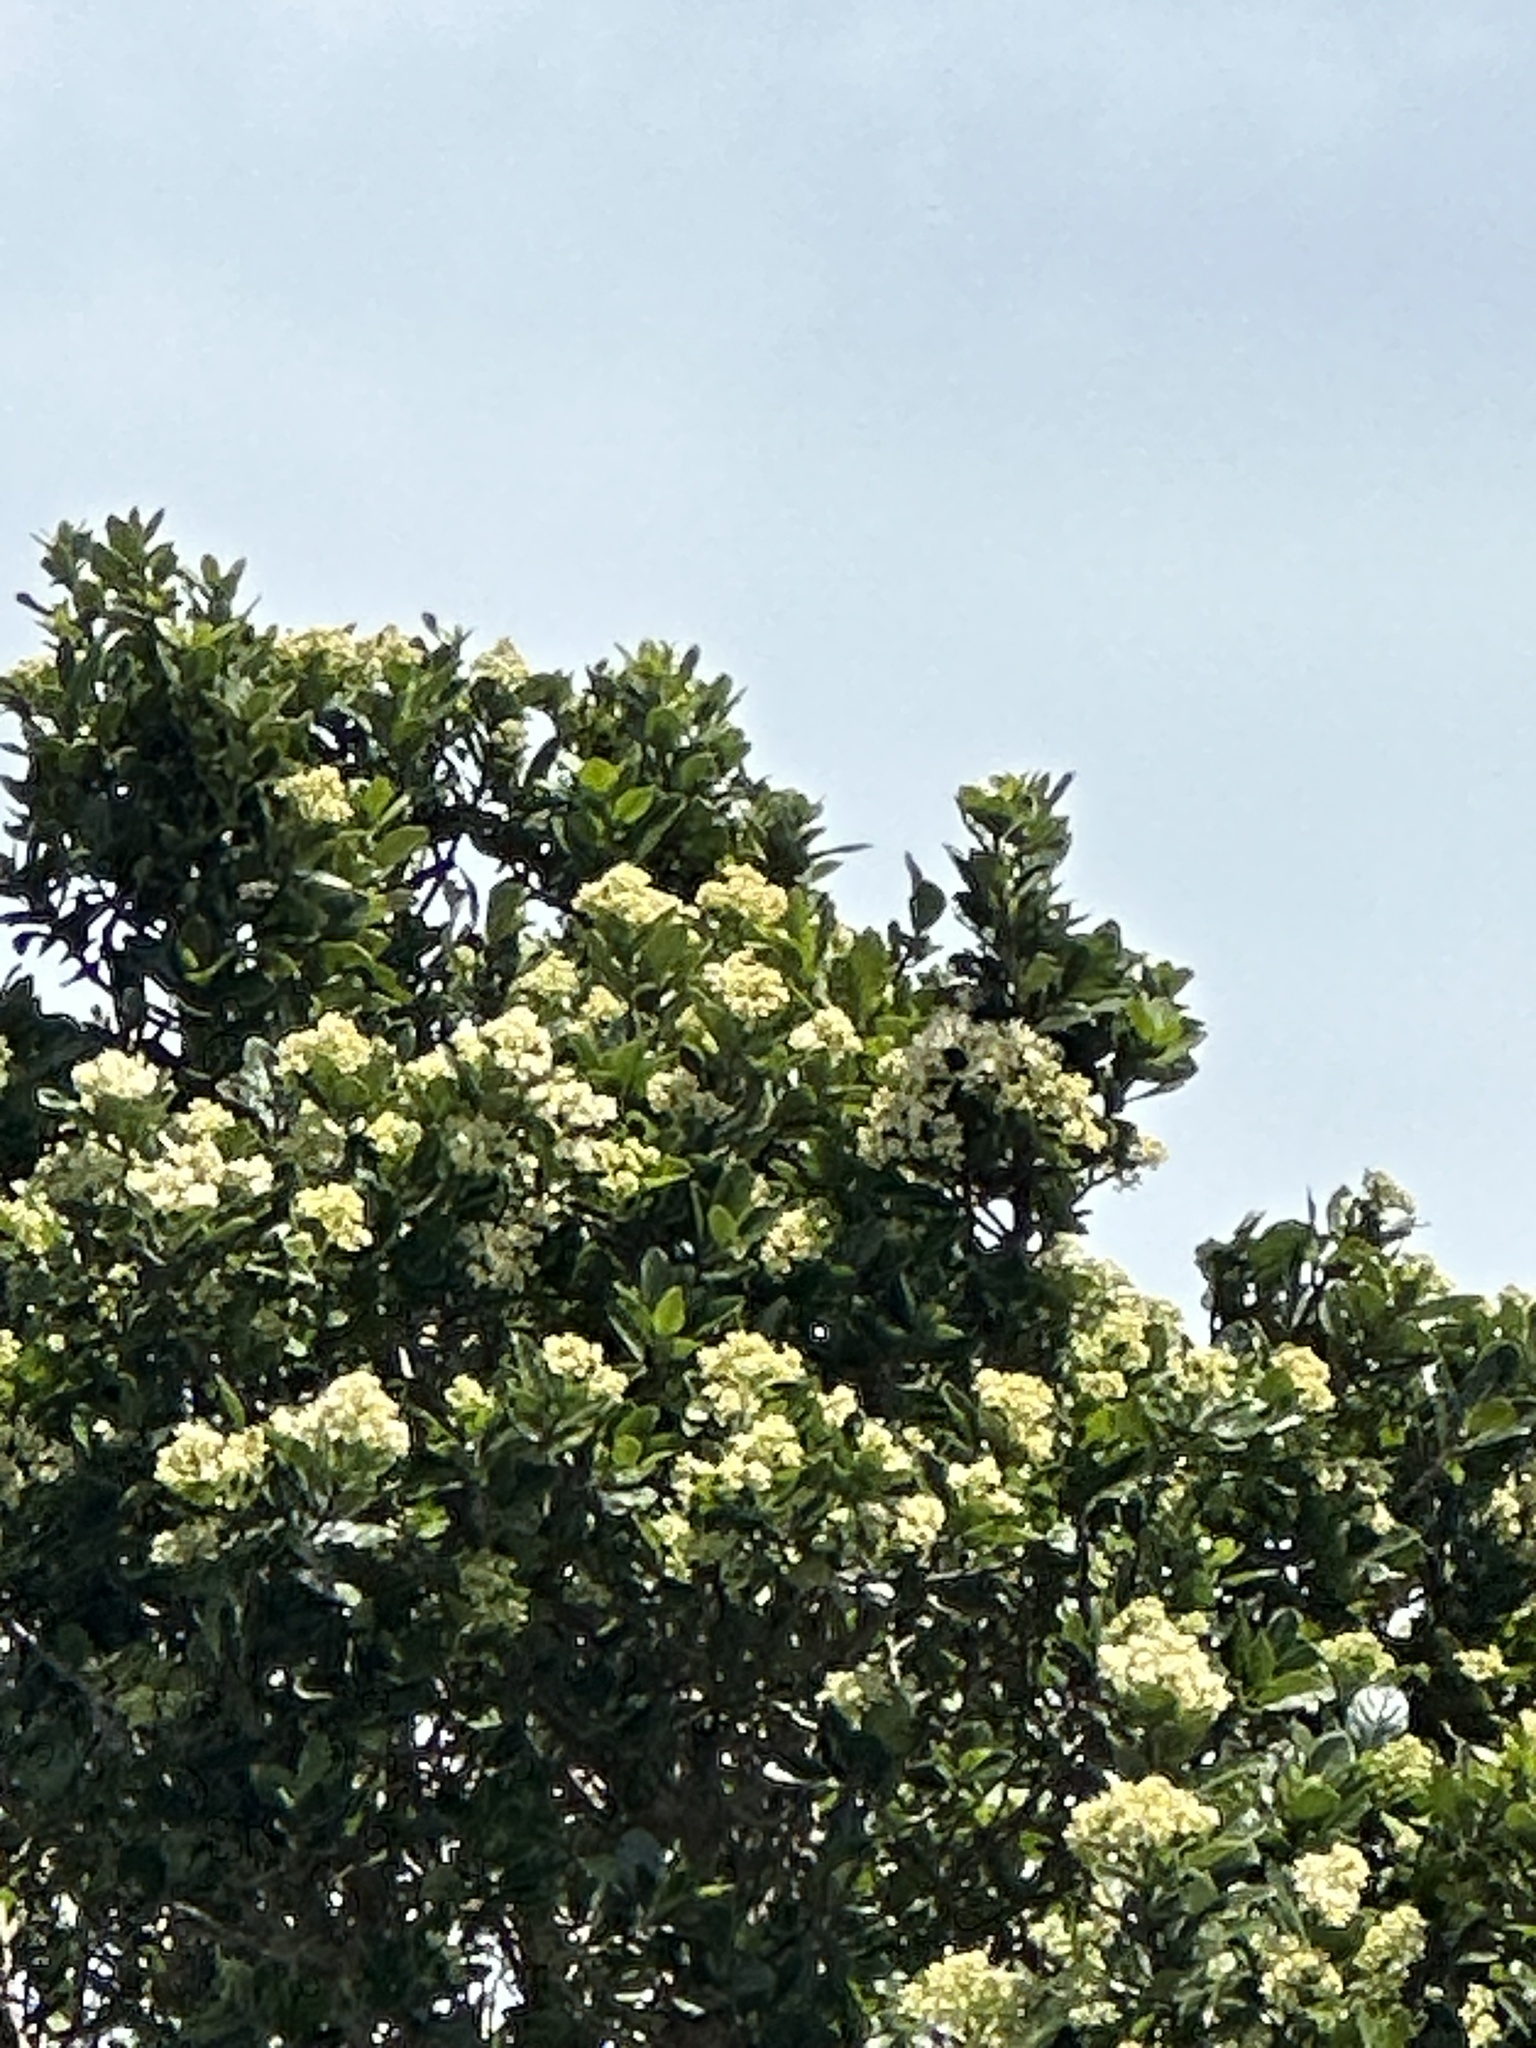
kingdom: Plantae
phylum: Tracheophyta
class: Magnoliopsida
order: Apiales
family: Pennantiaceae
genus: Pennantia
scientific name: Pennantia corymbosa
